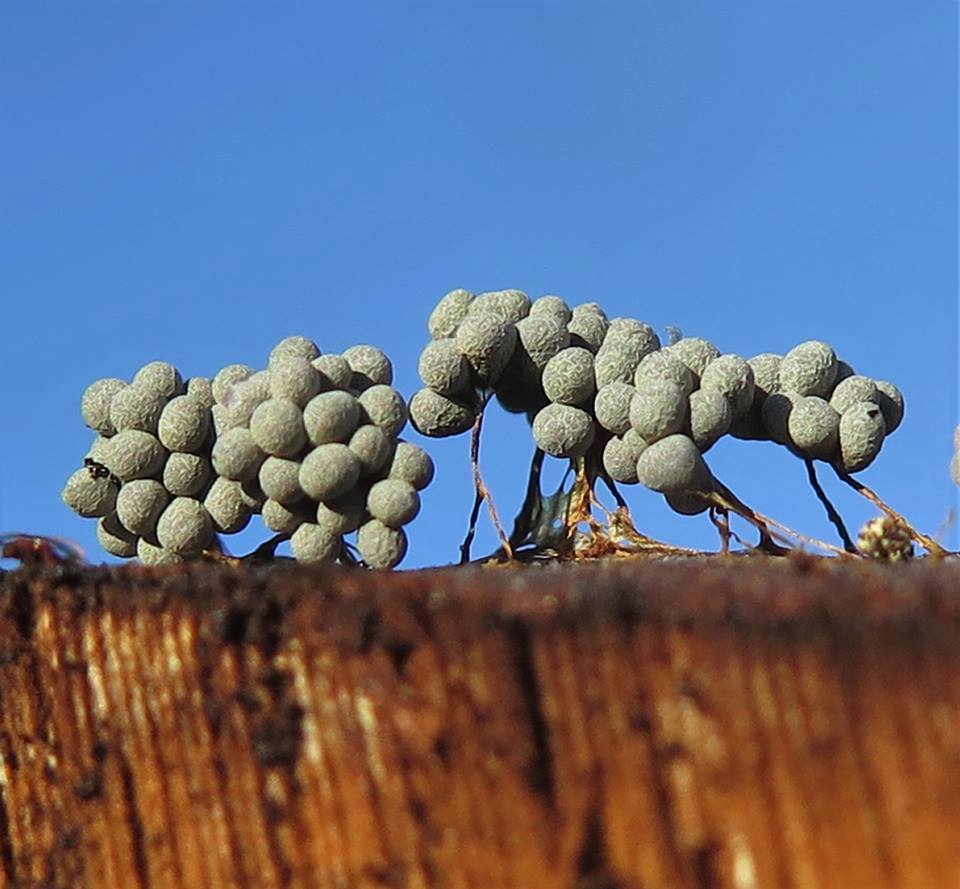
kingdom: Protozoa
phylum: Mycetozoa
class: Myxomycetes
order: Physarales
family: Physaraceae
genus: Badhamia
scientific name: Badhamia utricularis
